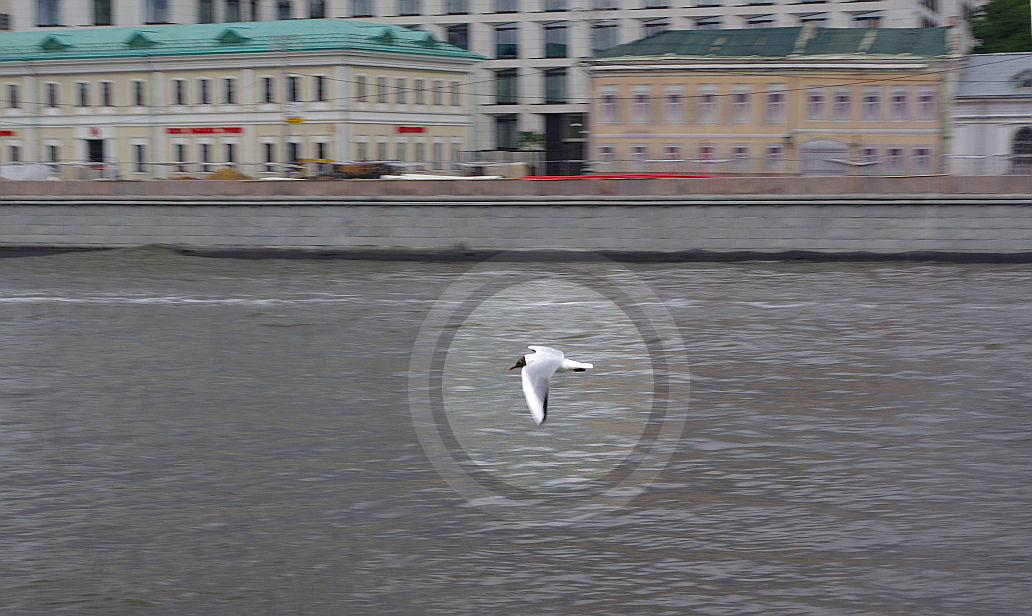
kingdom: Animalia
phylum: Chordata
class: Aves
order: Charadriiformes
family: Laridae
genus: Chroicocephalus
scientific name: Chroicocephalus ridibundus
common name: Black-headed gull
